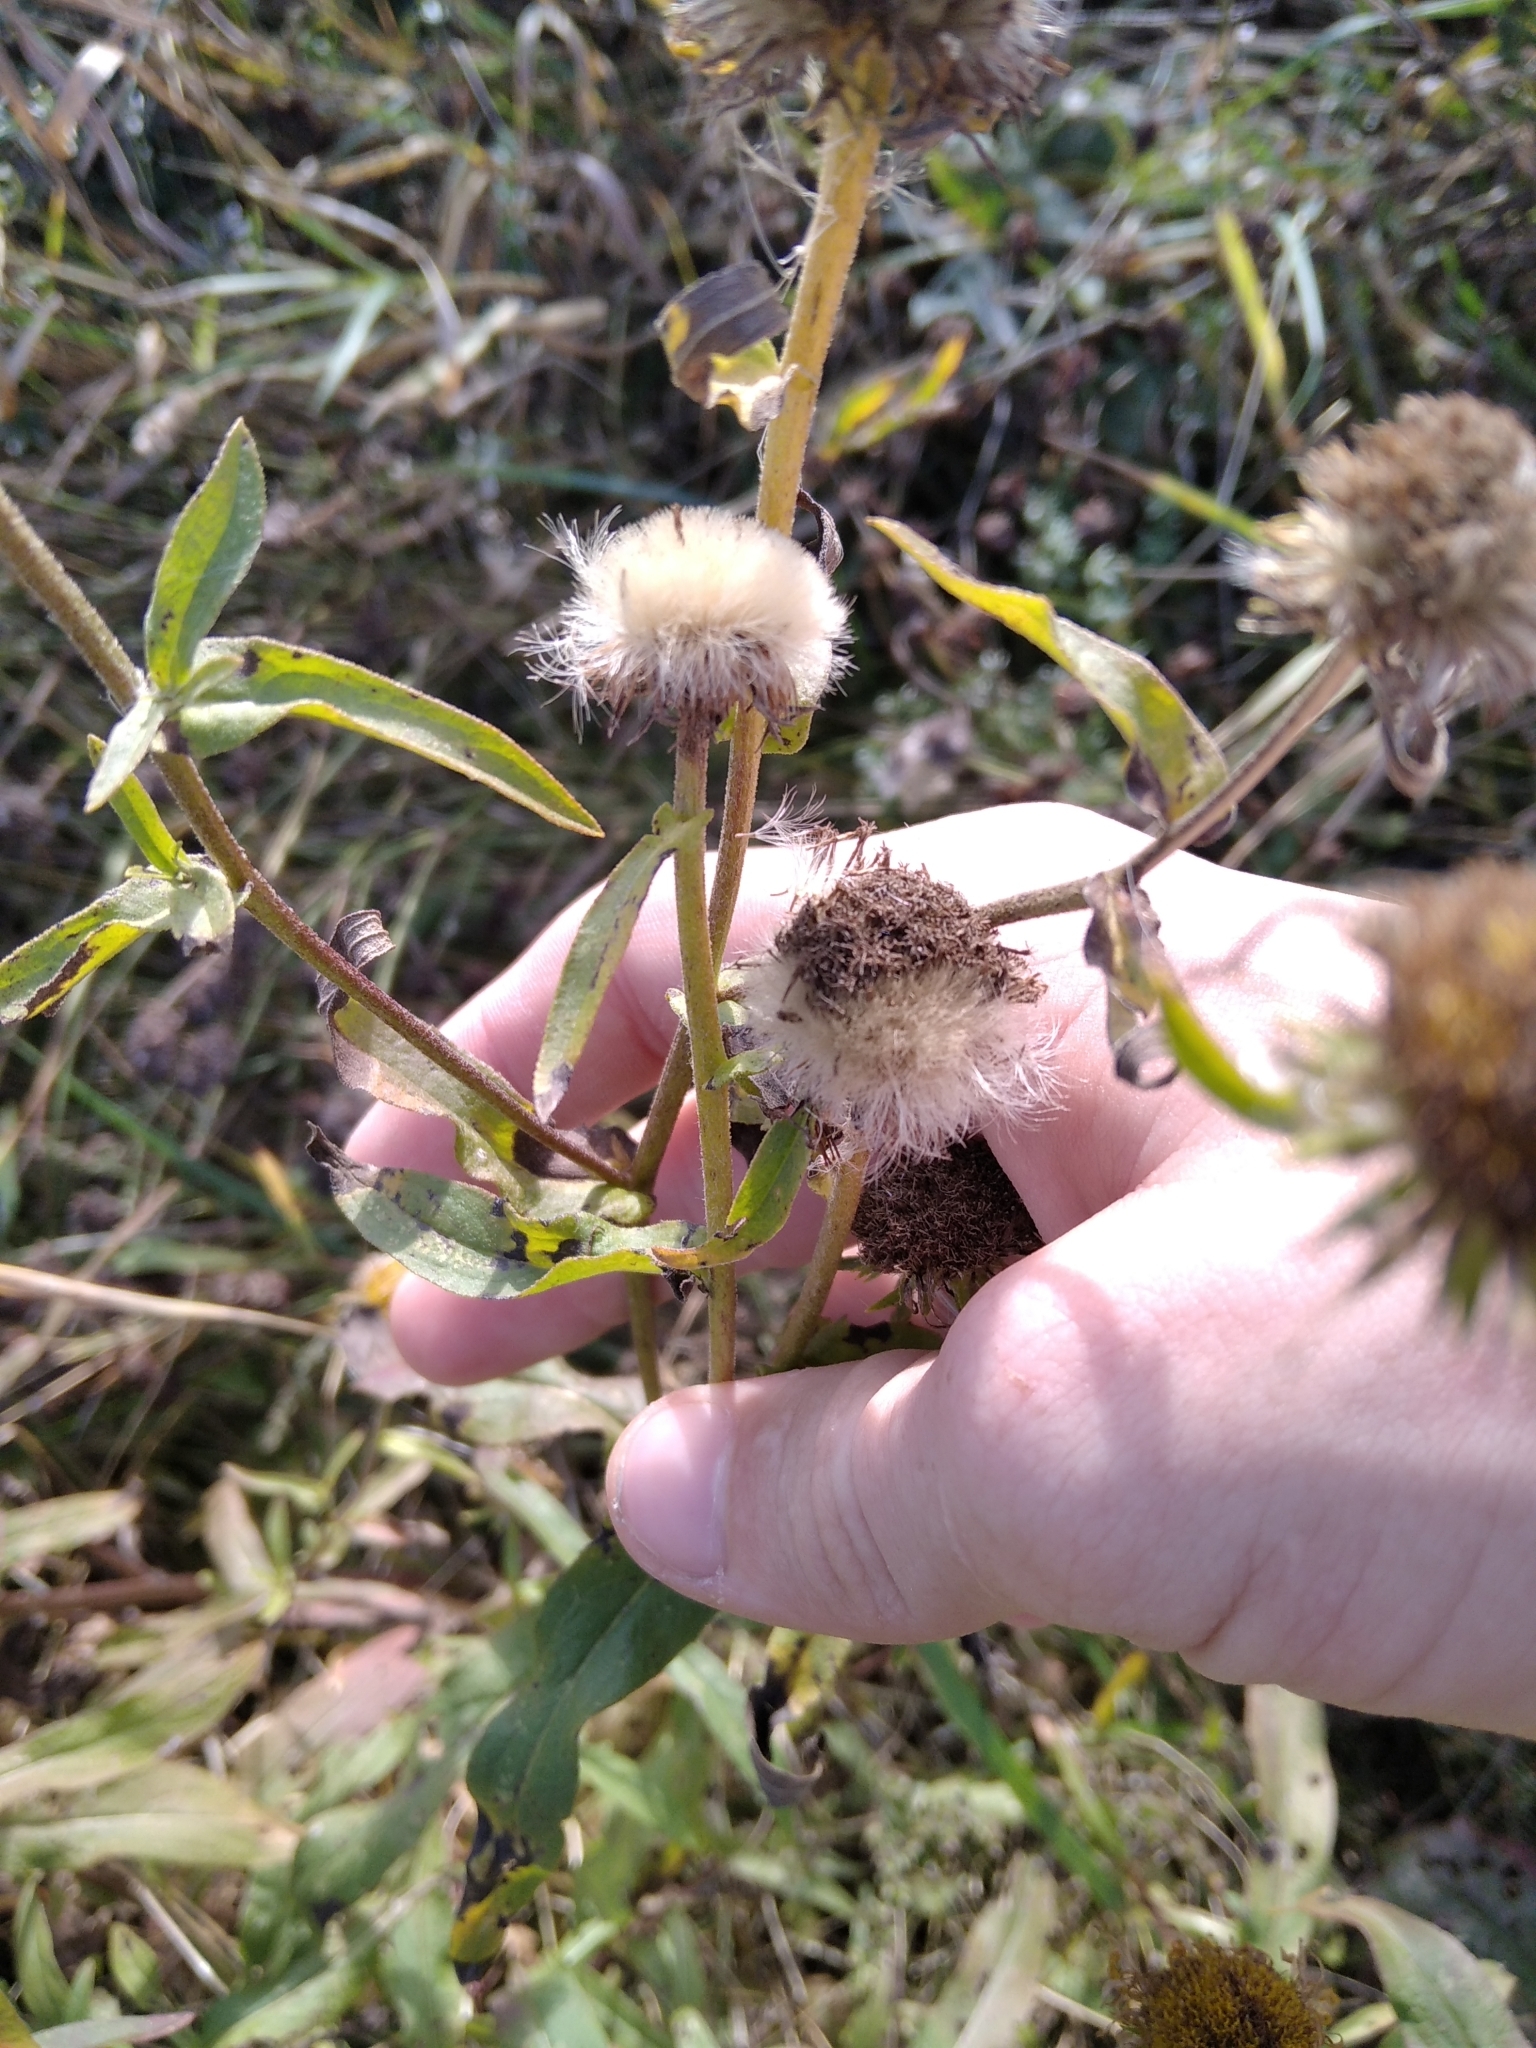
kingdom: Plantae
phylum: Tracheophyta
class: Magnoliopsida
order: Asterales
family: Asteraceae
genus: Pentanema
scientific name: Pentanema britannicum
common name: British elecampane
